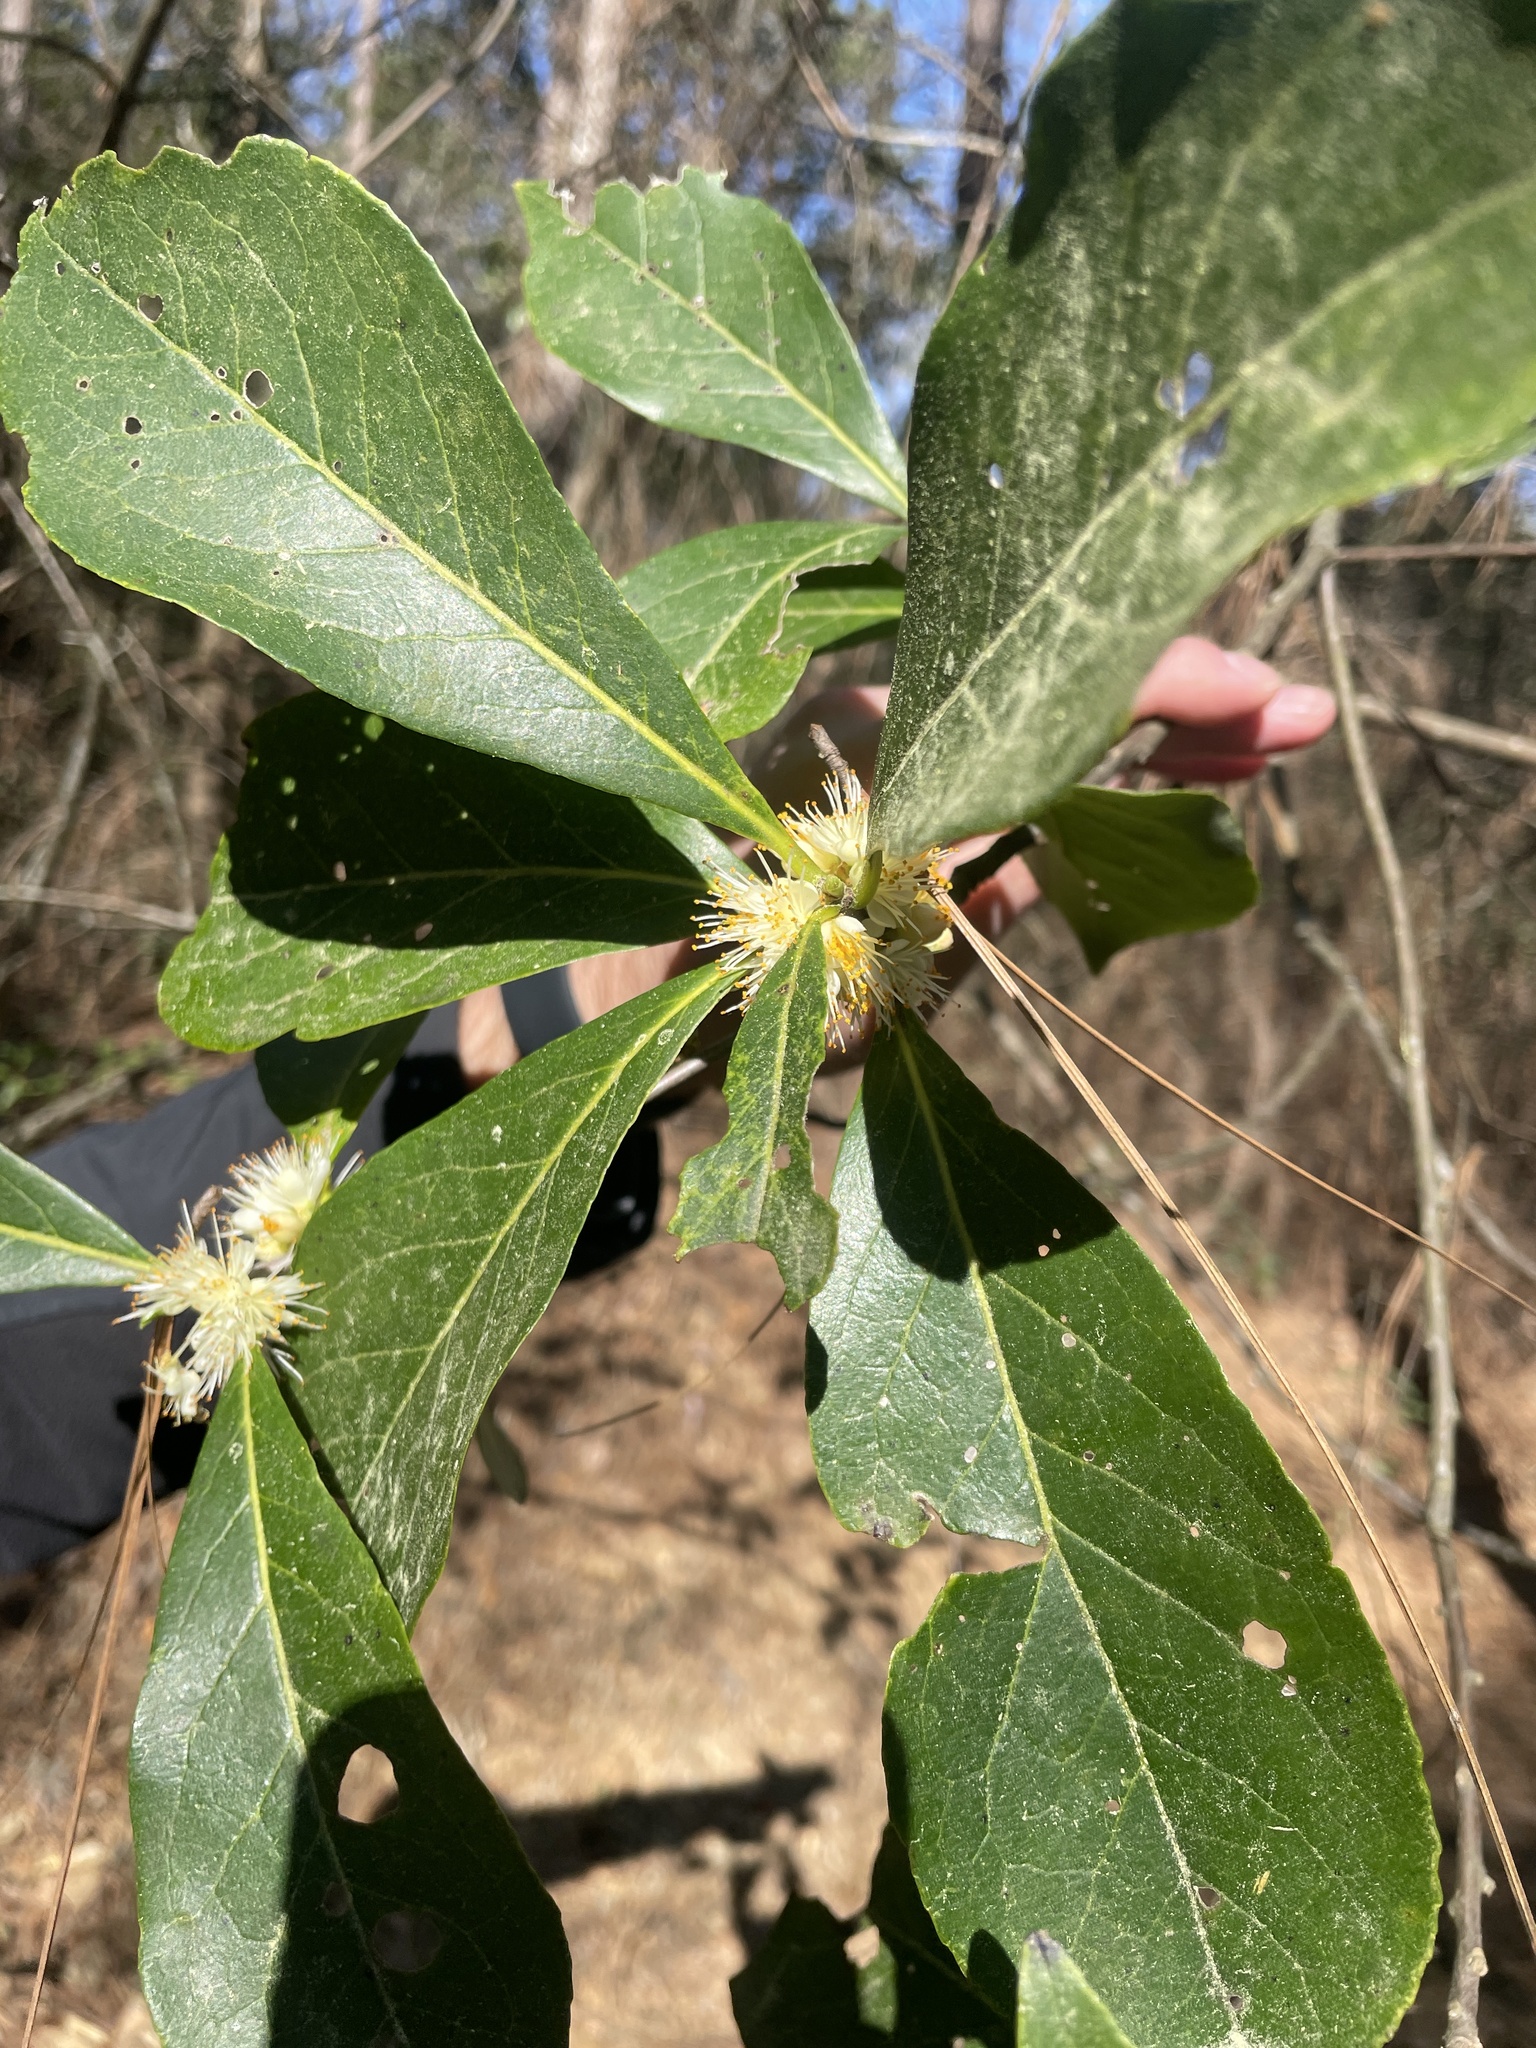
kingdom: Plantae
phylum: Tracheophyta
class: Magnoliopsida
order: Ericales
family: Symplocaceae
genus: Symplocos
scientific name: Symplocos tinctoria
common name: Horse-sugar
